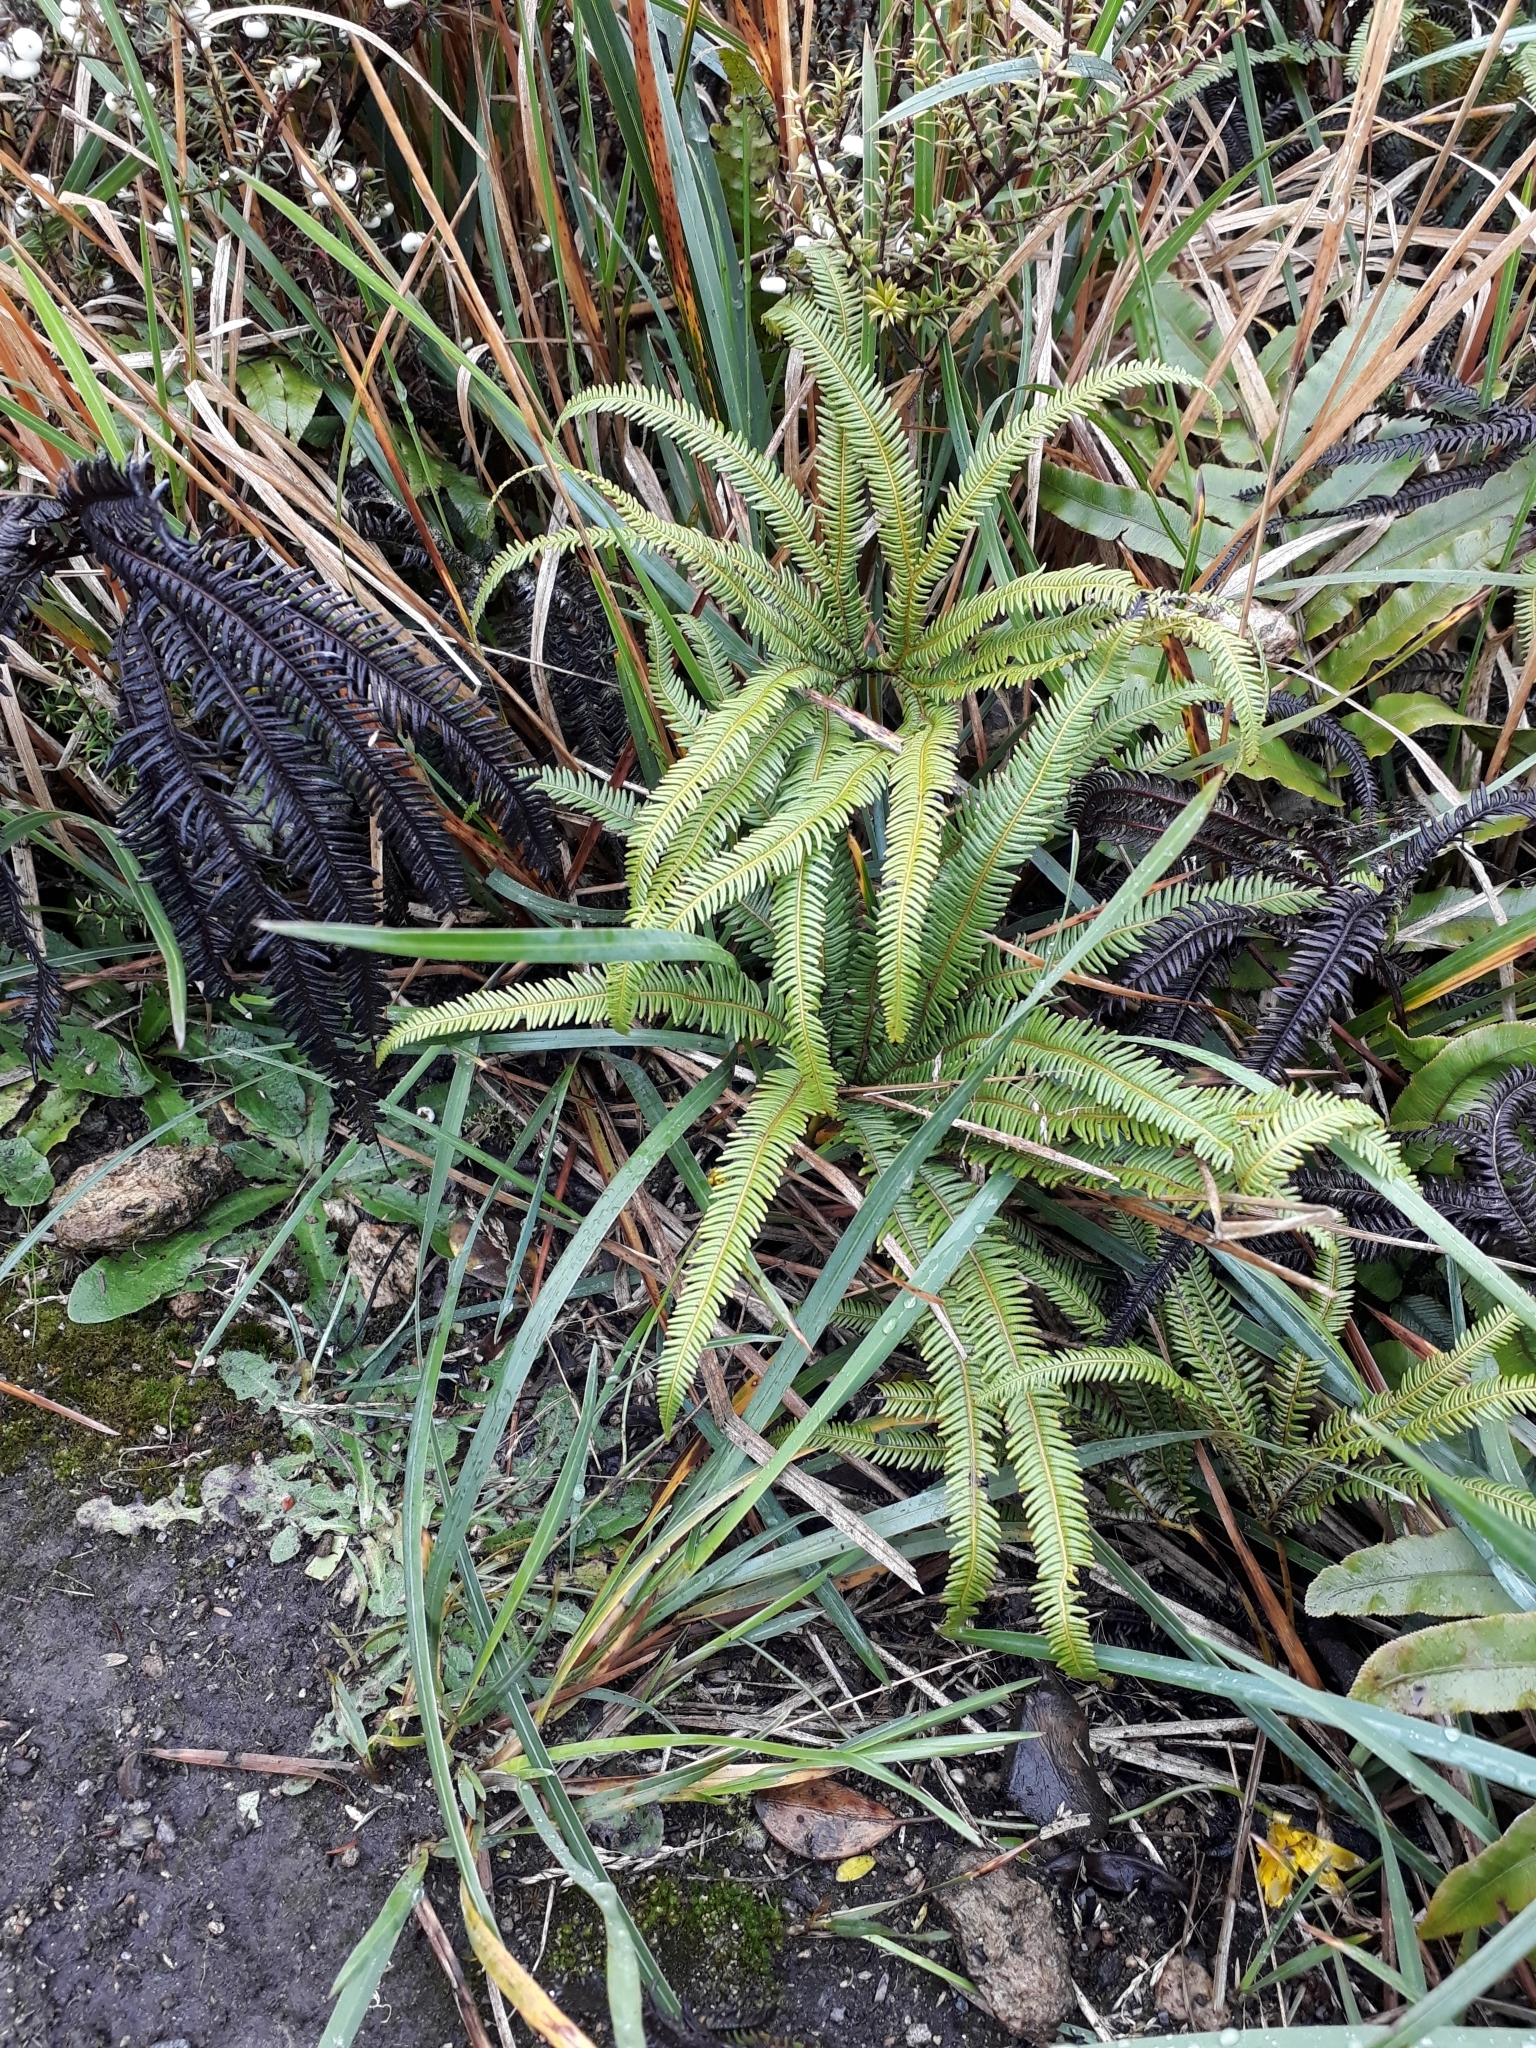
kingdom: Plantae
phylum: Tracheophyta
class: Polypodiopsida
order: Gleicheniales
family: Gleicheniaceae
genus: Sticherus
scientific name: Sticherus cunninghamii
